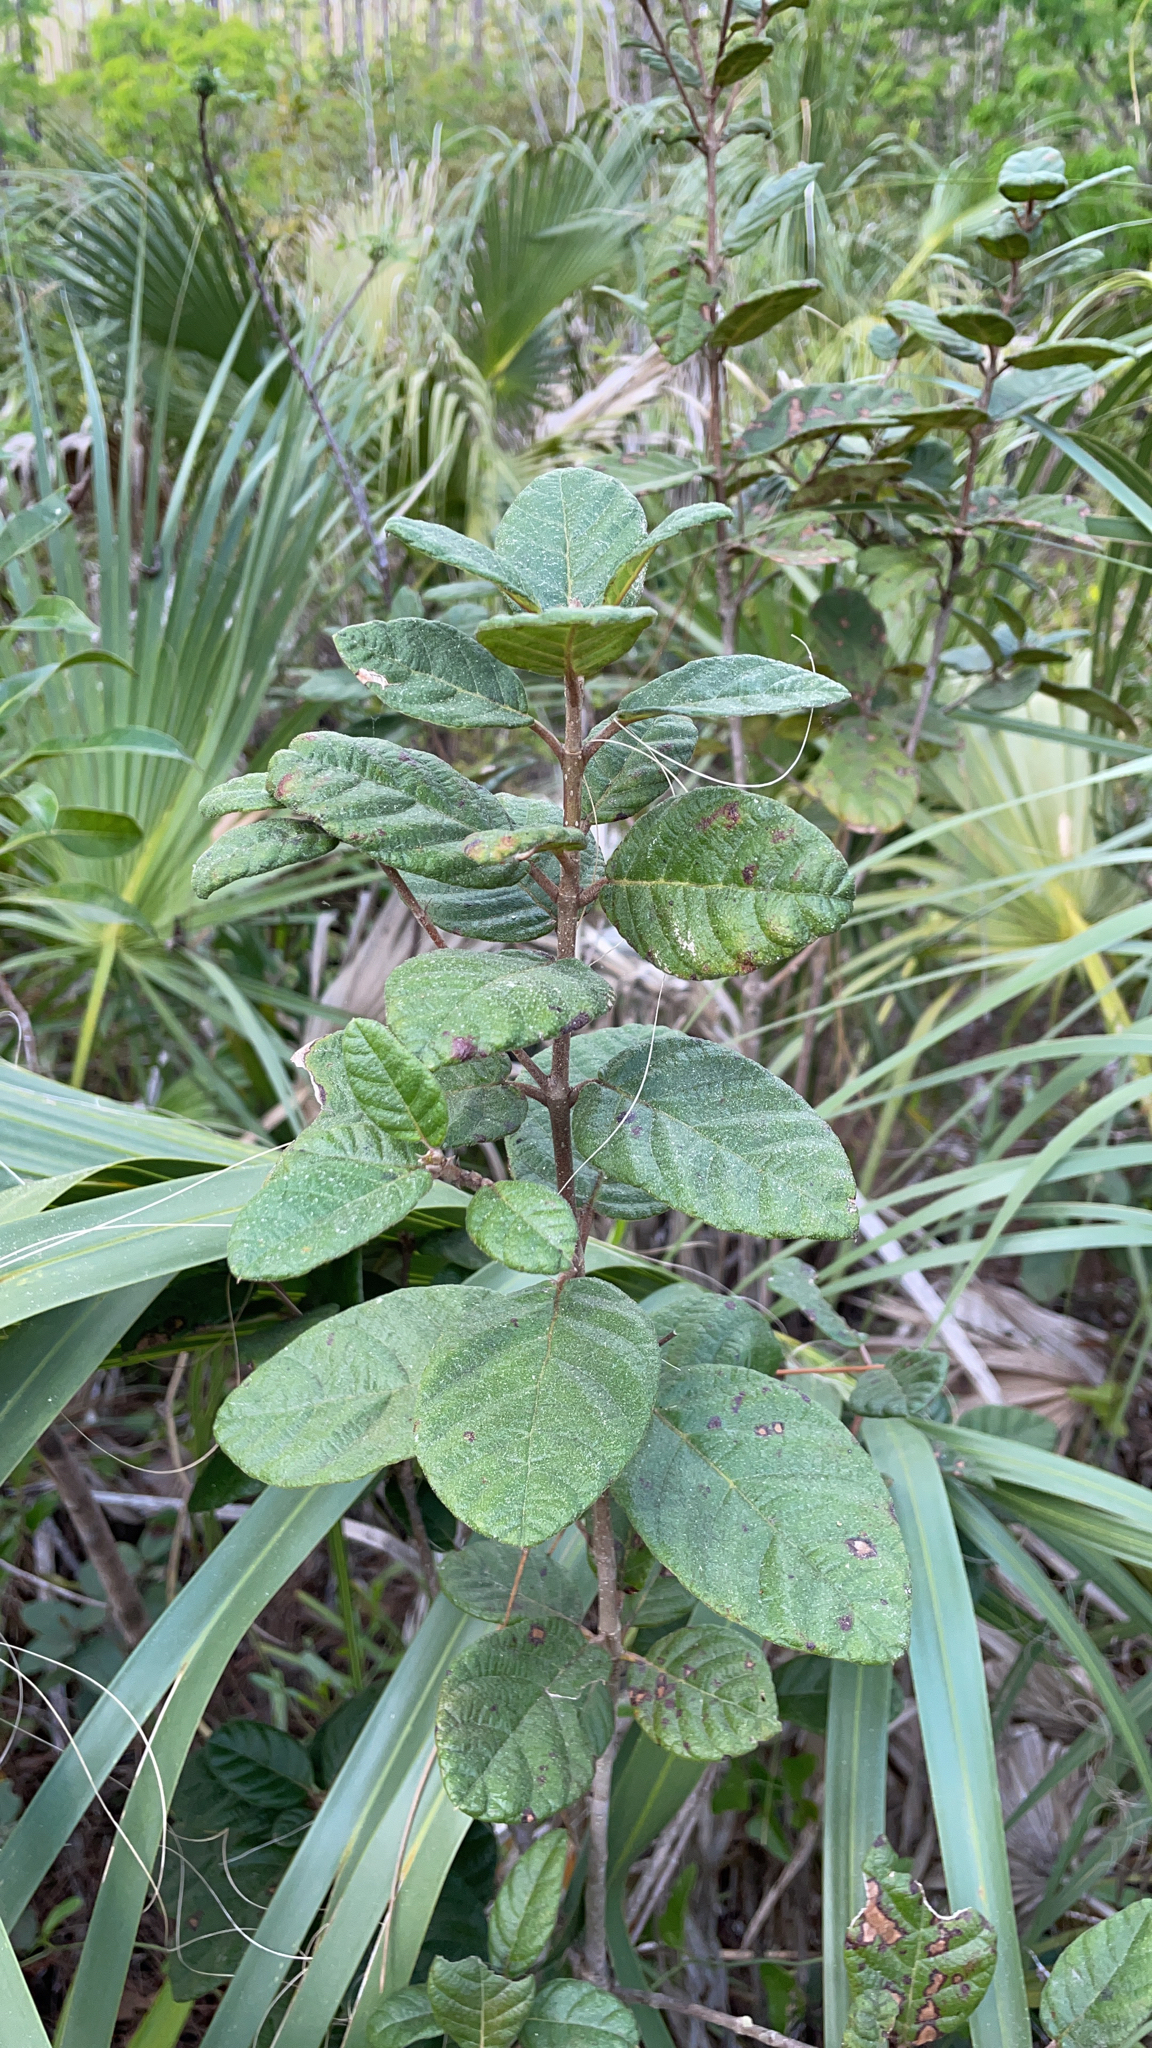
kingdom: Plantae
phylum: Tracheophyta
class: Magnoliopsida
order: Gentianales
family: Rubiaceae
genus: Guettarda
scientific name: Guettarda scabra
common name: Pigeon bay
